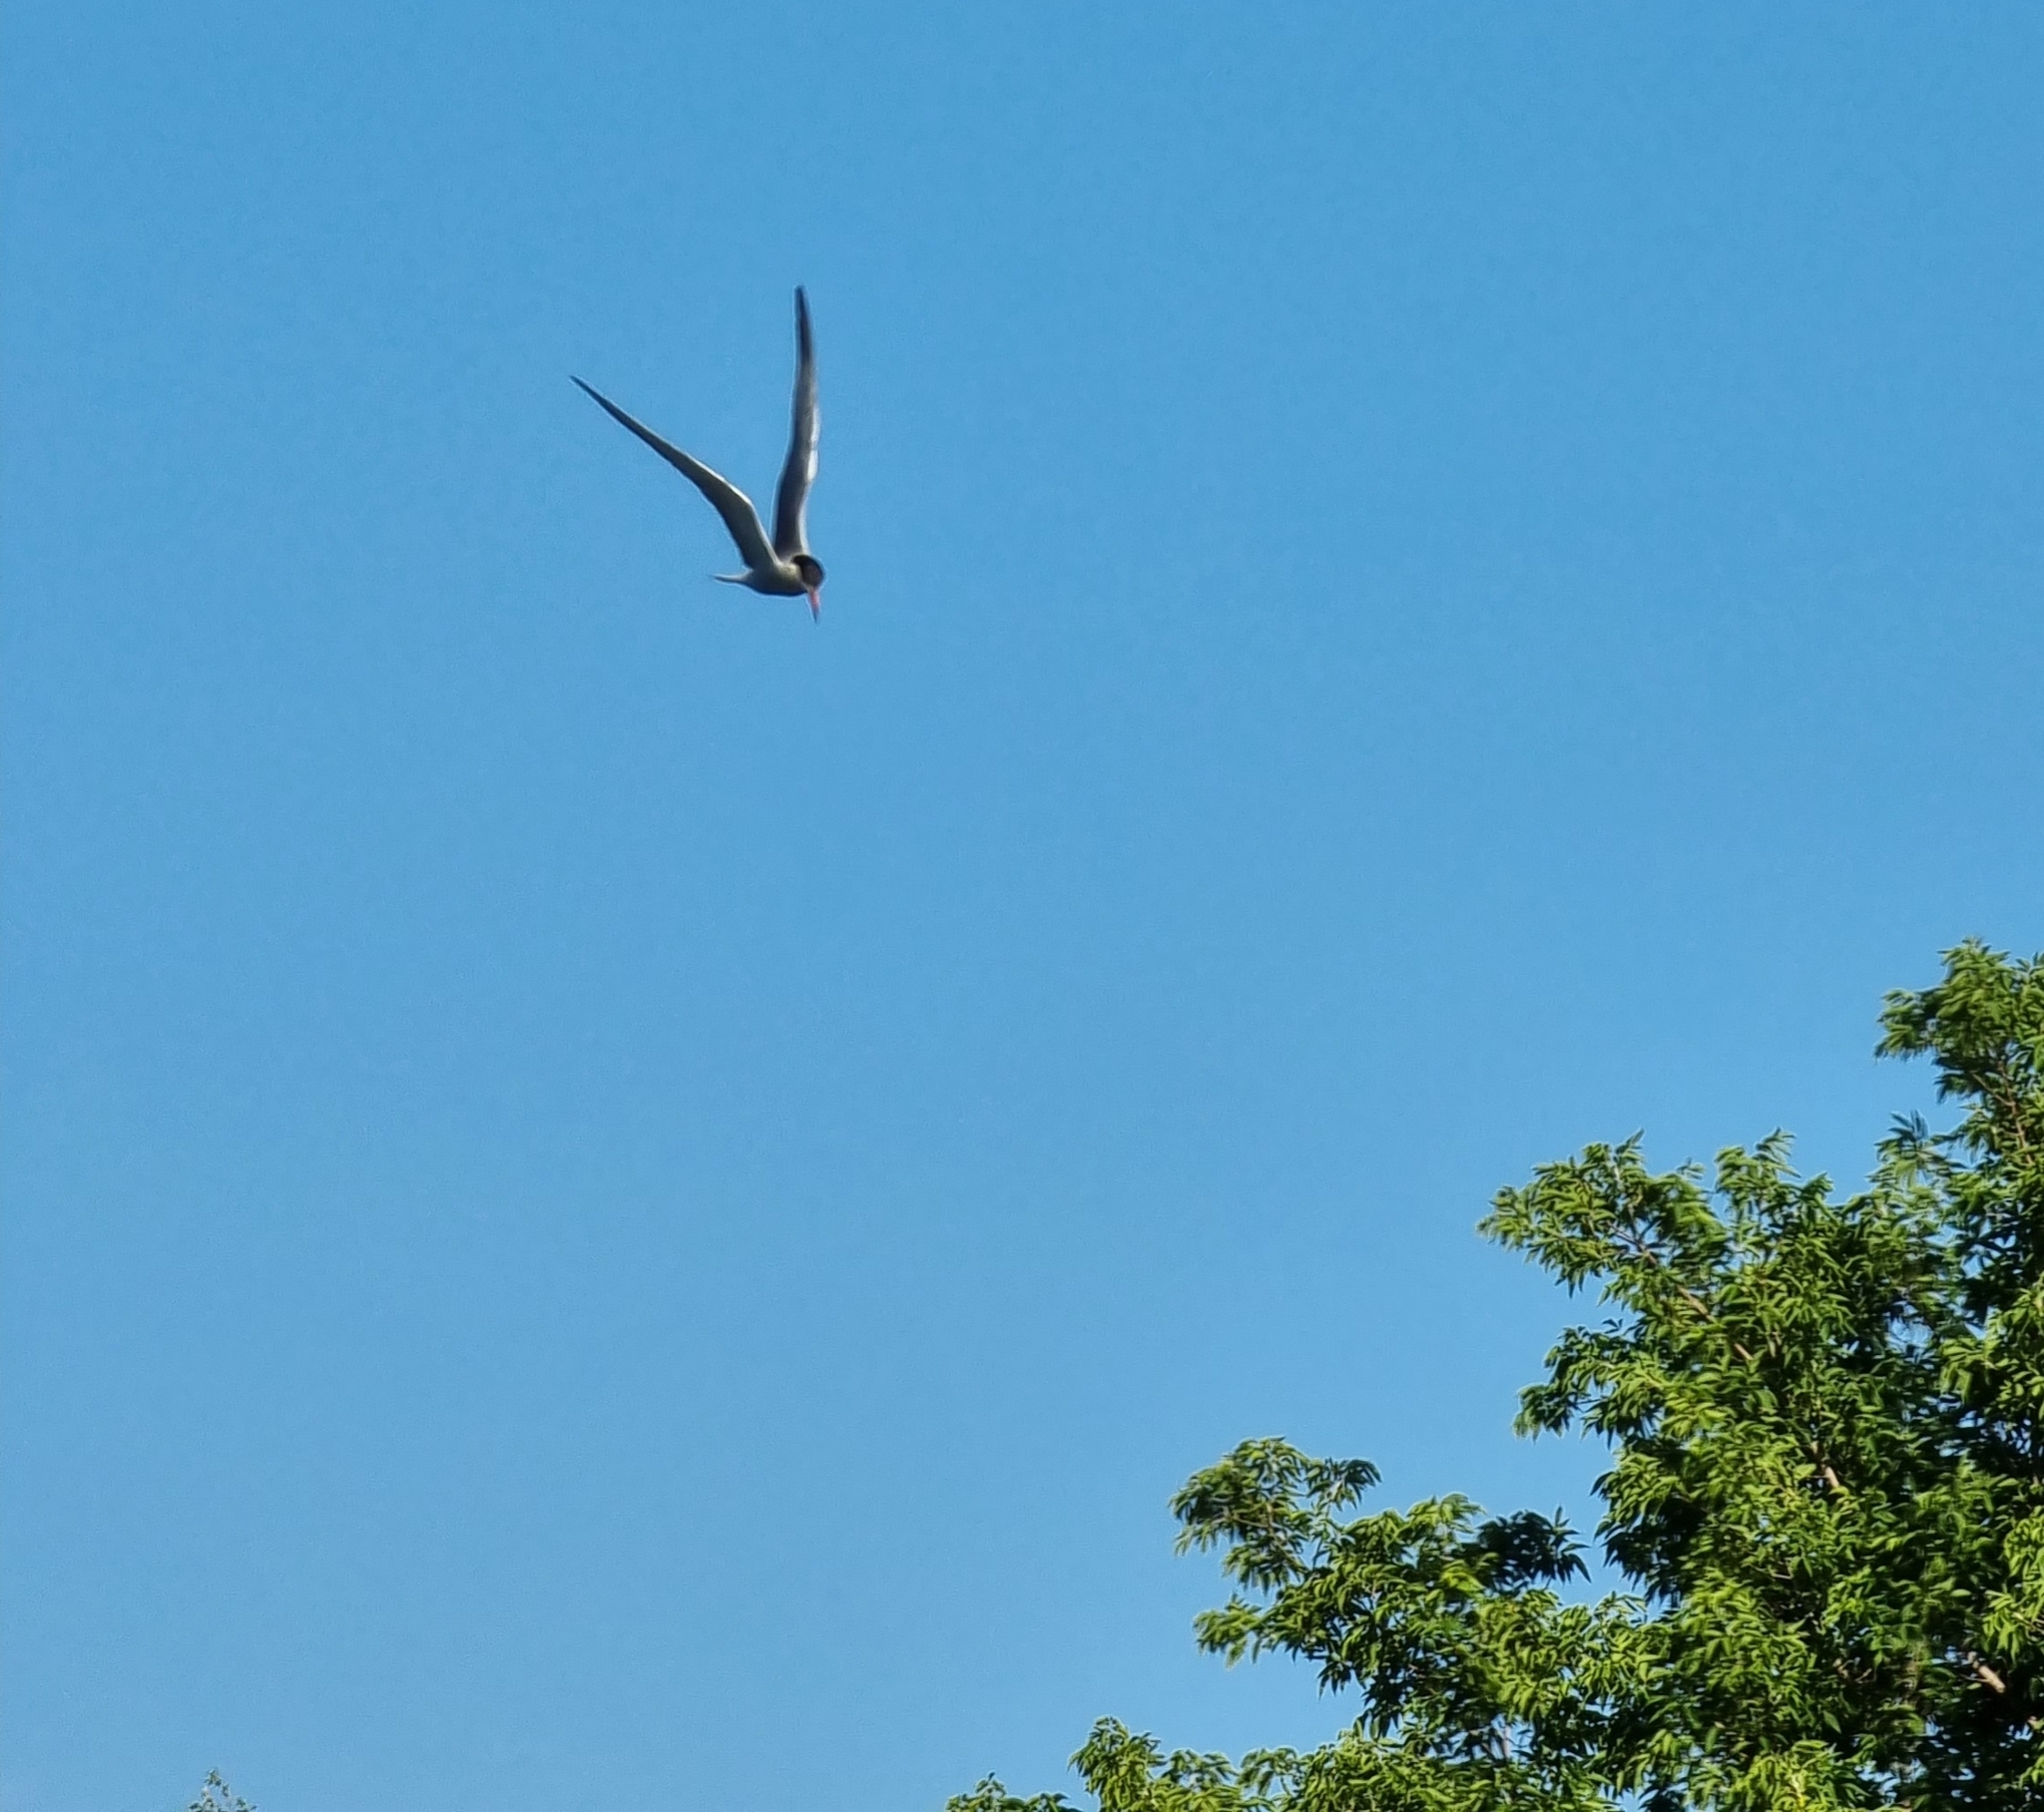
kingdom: Animalia
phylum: Chordata
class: Aves
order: Charadriiformes
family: Laridae
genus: Sterna
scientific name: Sterna hirundo
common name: Common tern
